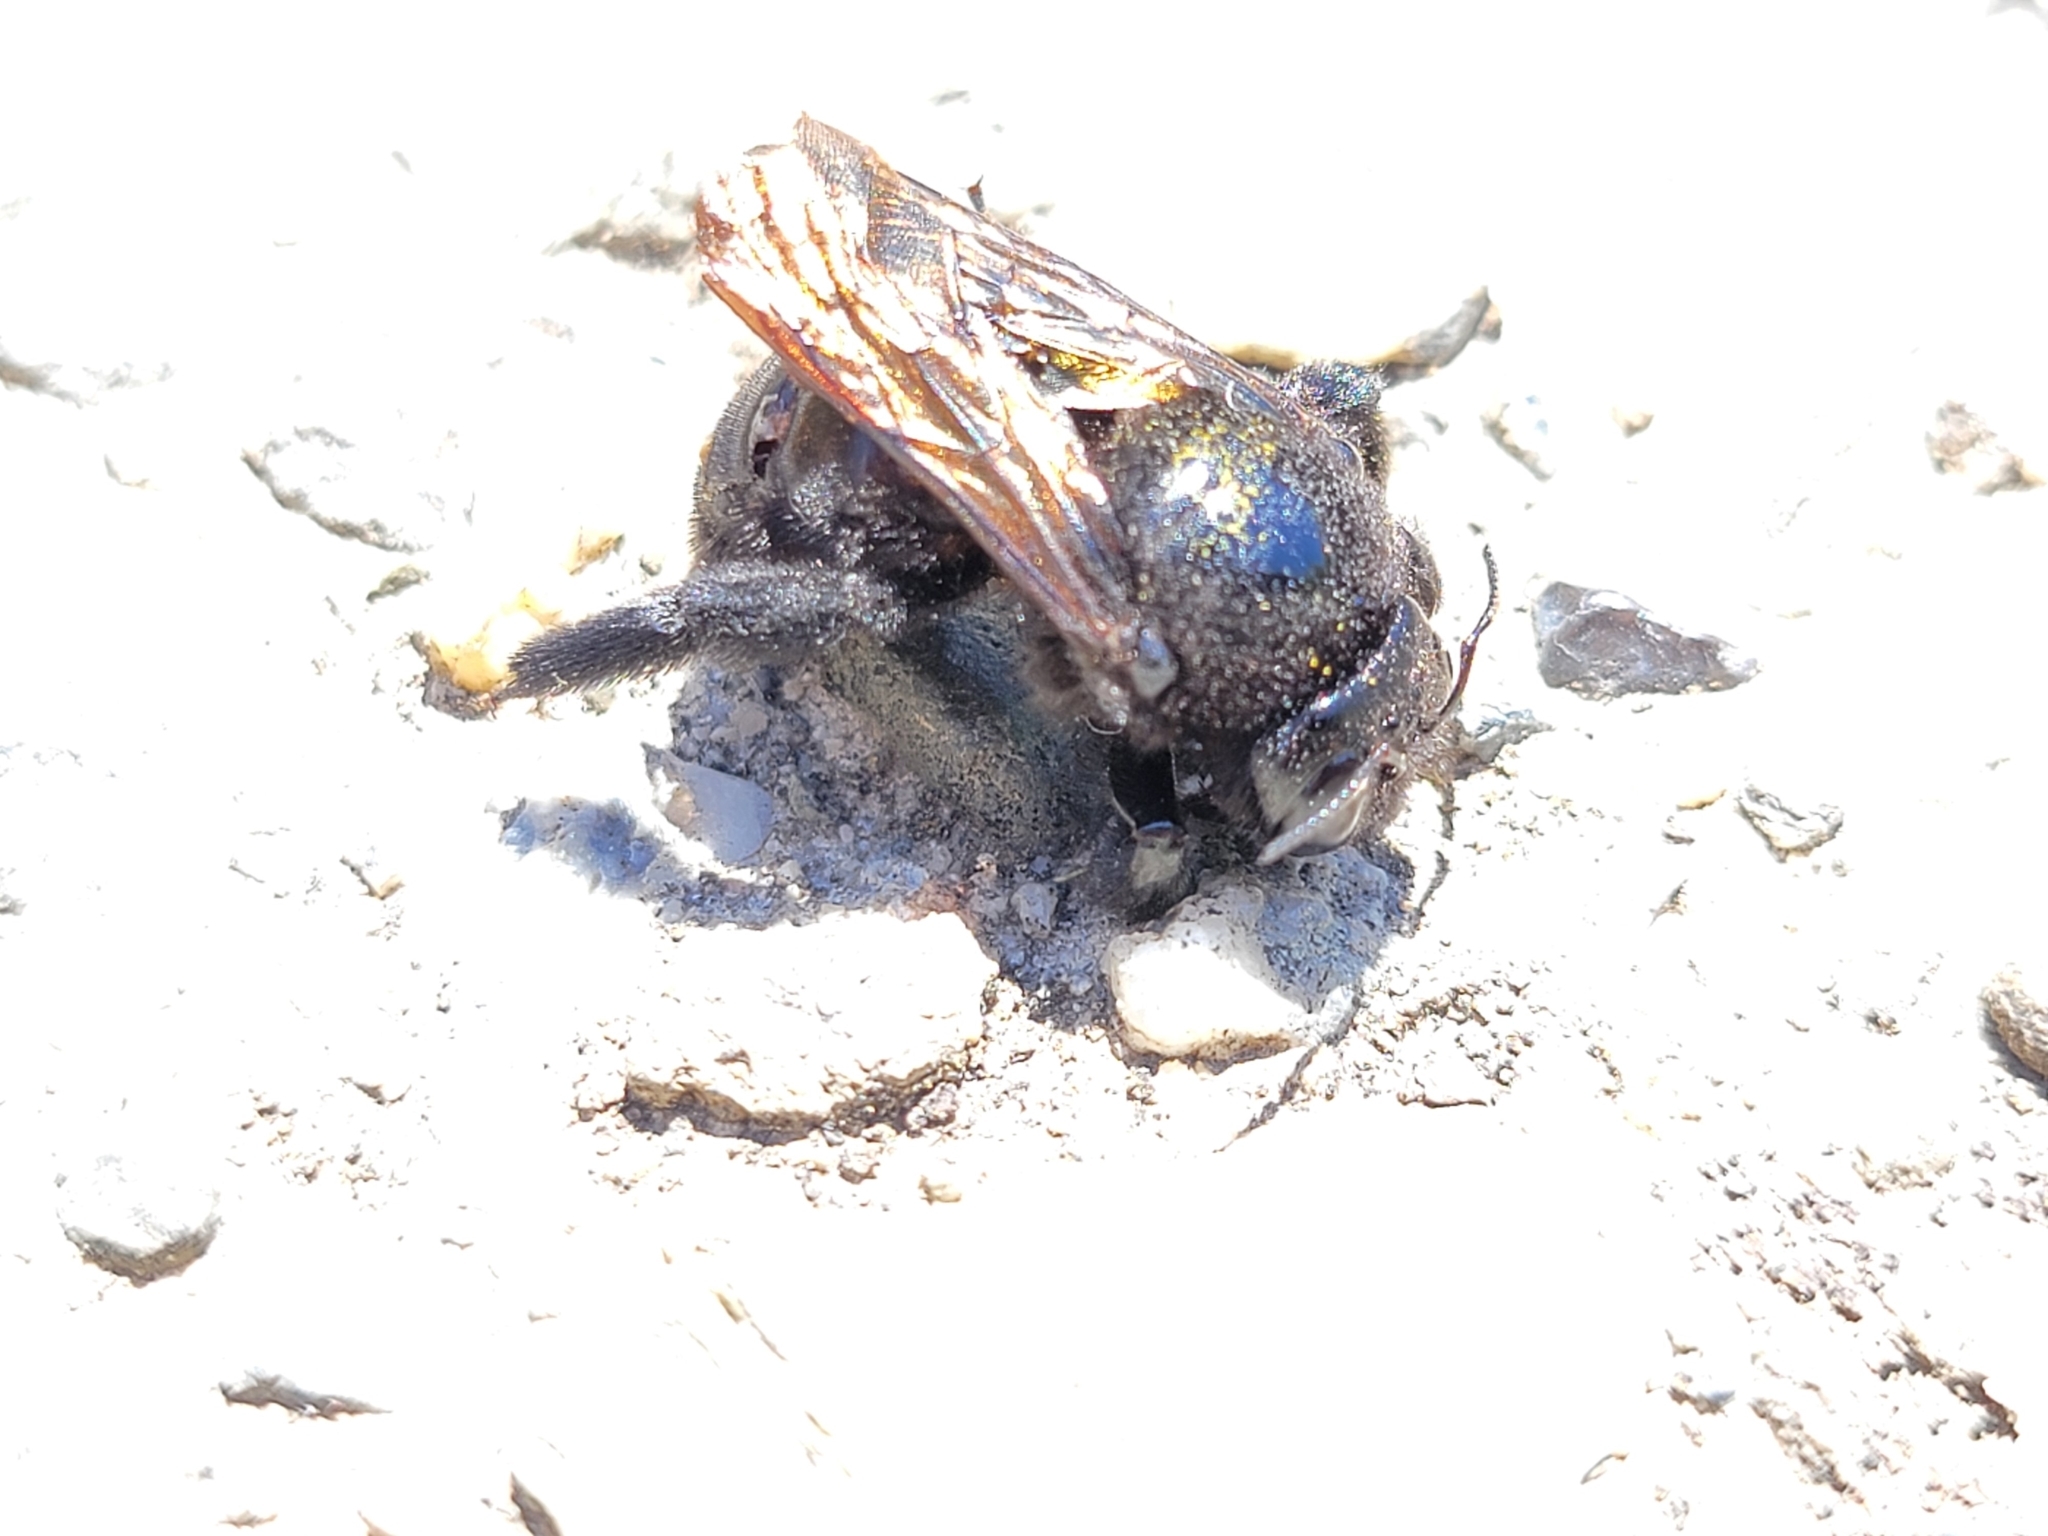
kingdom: Animalia
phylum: Arthropoda
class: Insecta
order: Hymenoptera
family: Apidae
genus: Xylocopa
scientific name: Xylocopa sonorina
